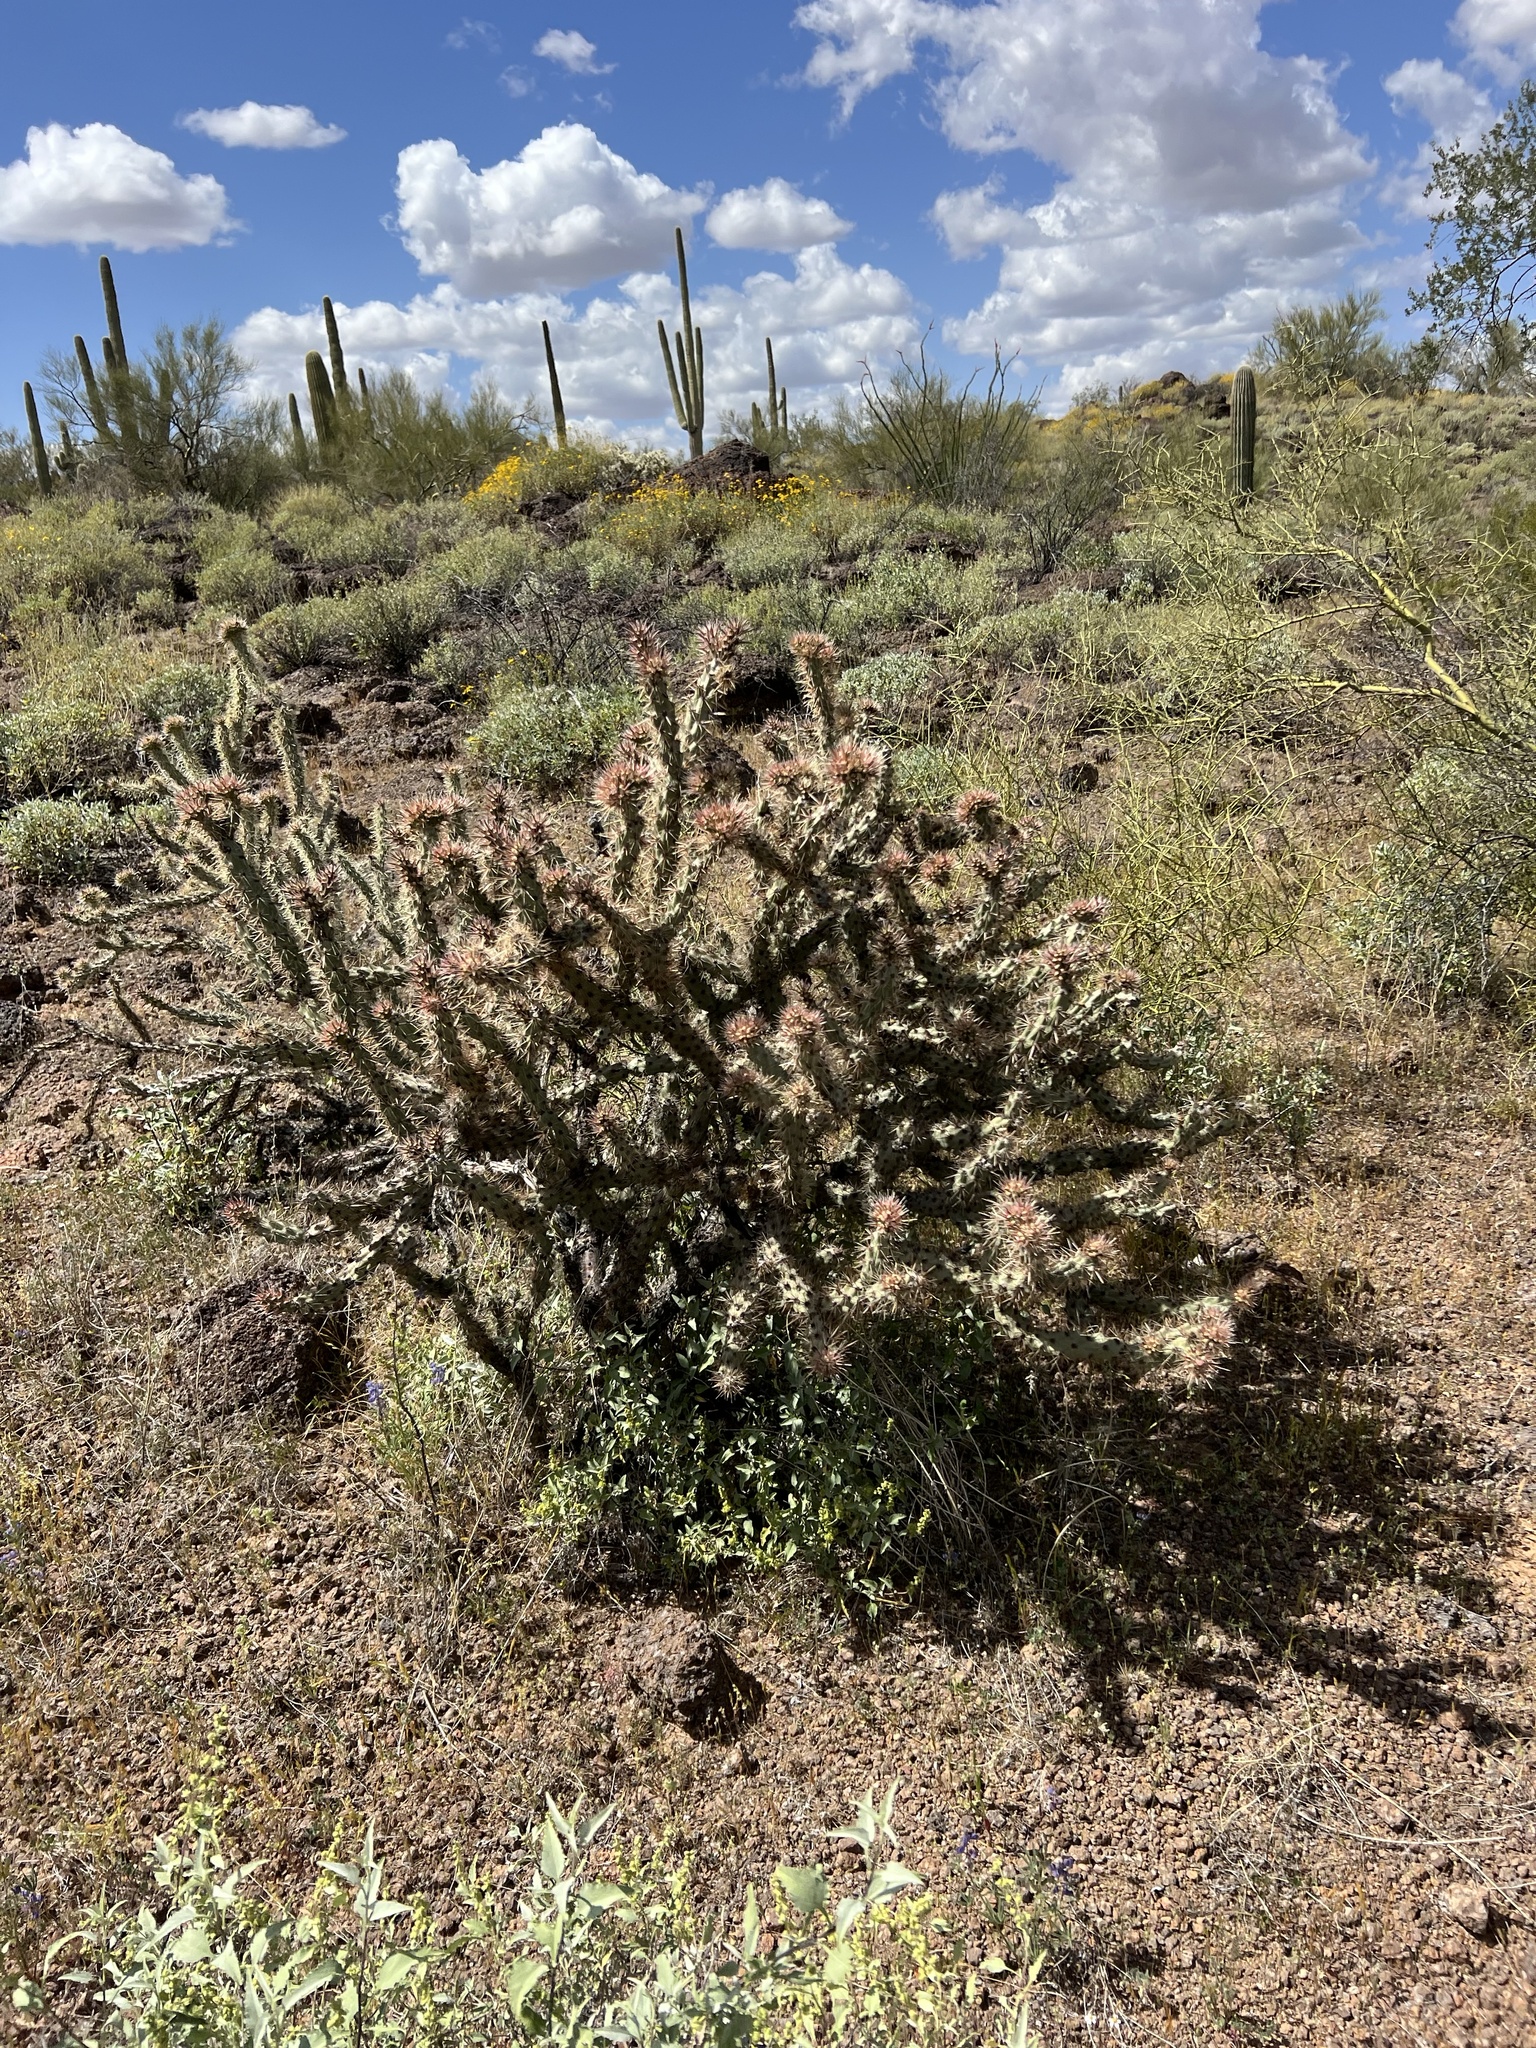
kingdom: Plantae
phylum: Tracheophyta
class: Magnoliopsida
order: Caryophyllales
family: Cactaceae
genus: Cylindropuntia
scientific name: Cylindropuntia acanthocarpa
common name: Buckhorn cholla
